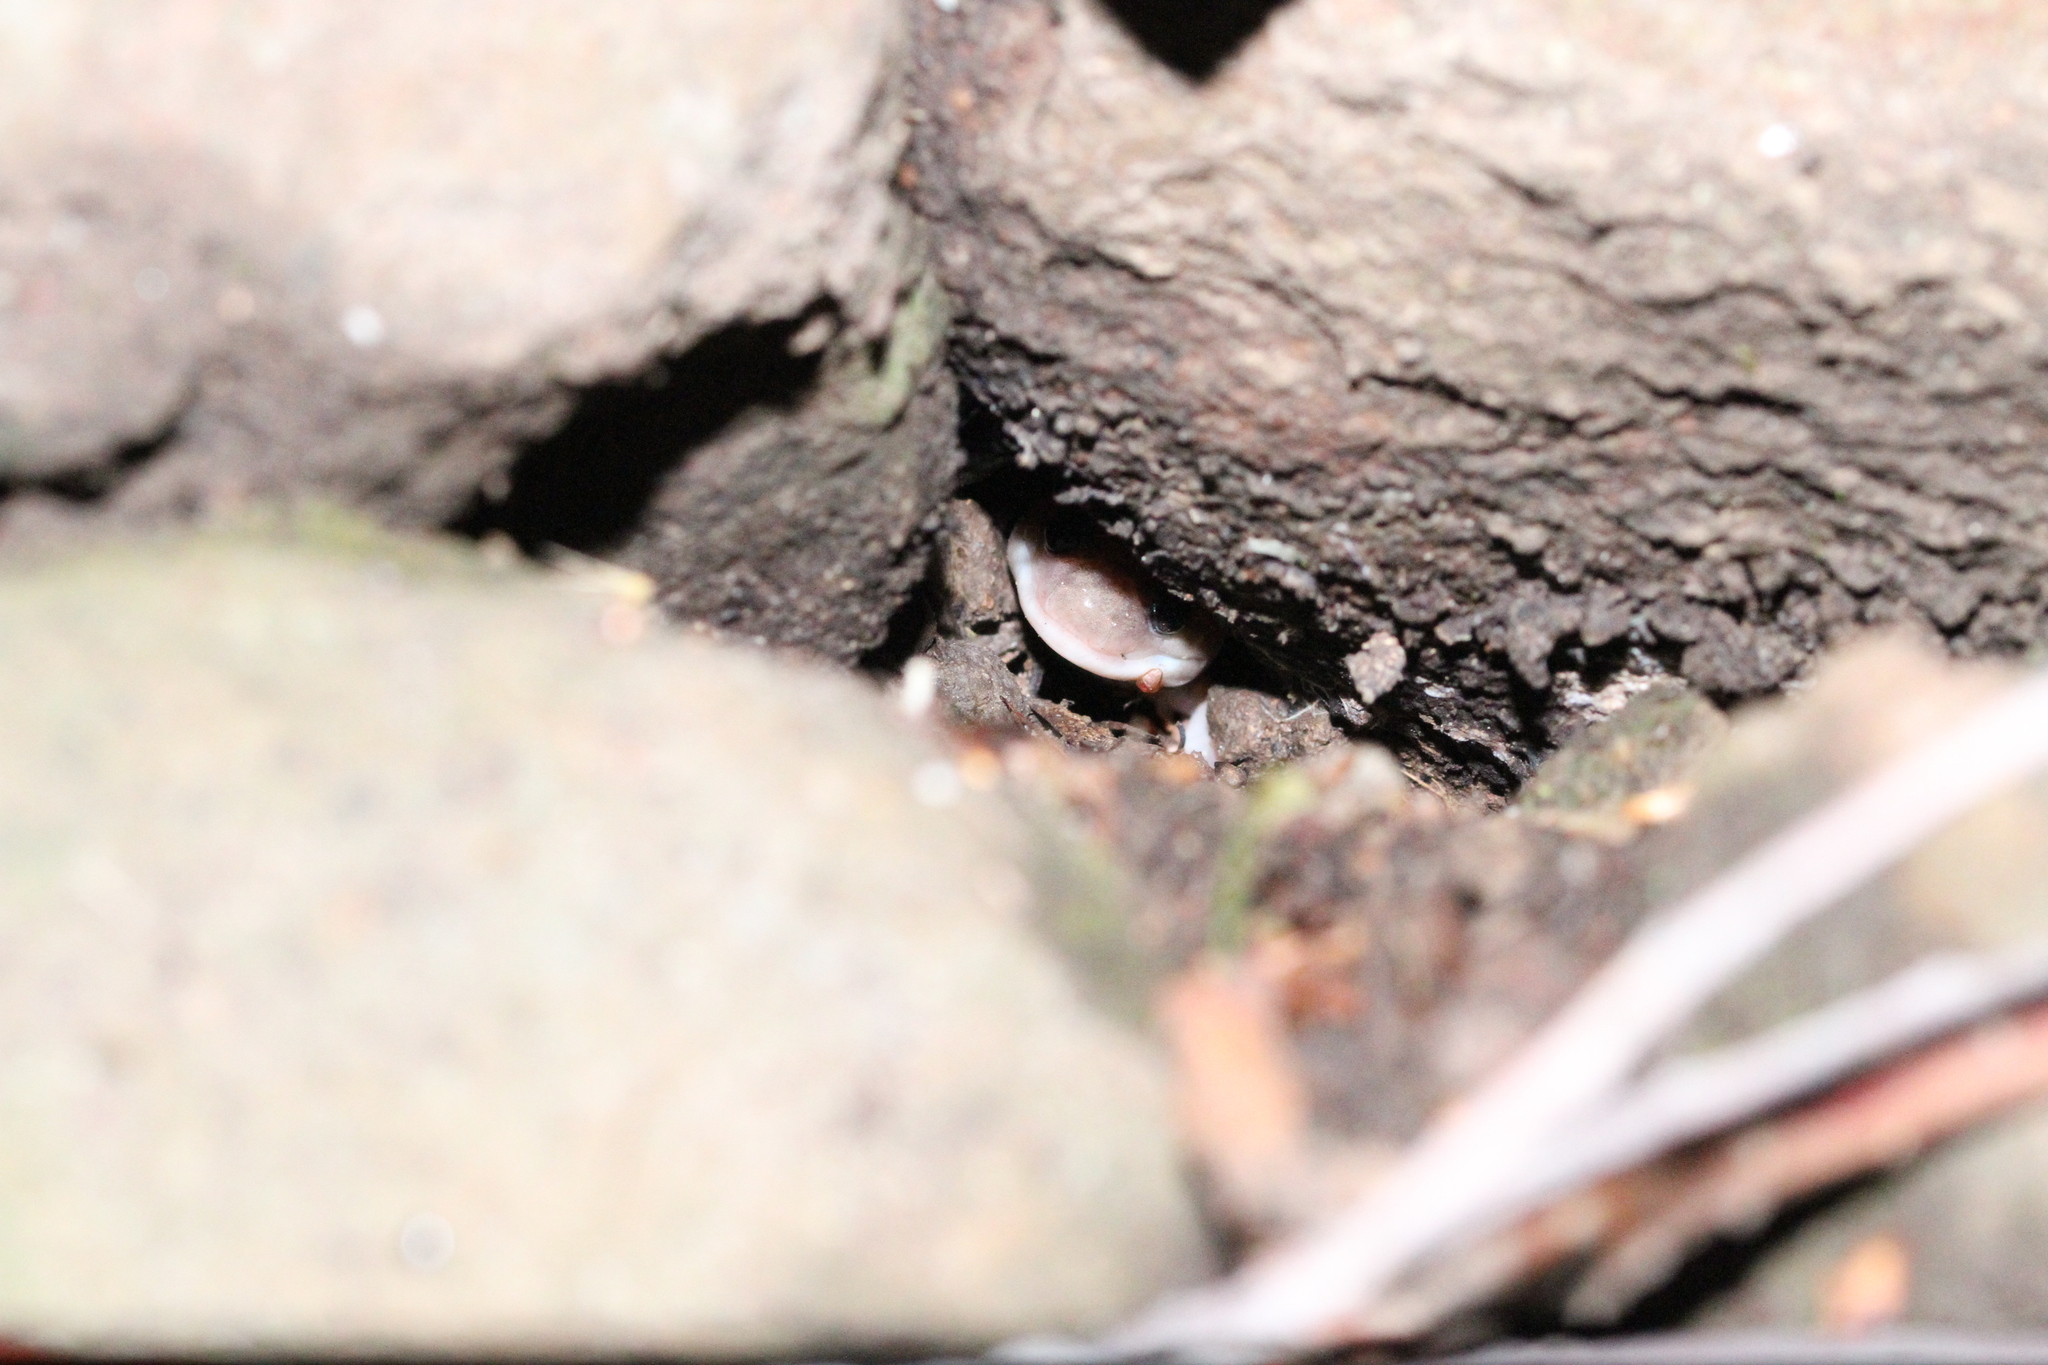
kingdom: Animalia
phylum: Chordata
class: Amphibia
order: Caudata
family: Plethodontidae
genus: Aneides
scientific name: Aneides lugubris
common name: Arboreal salamander
